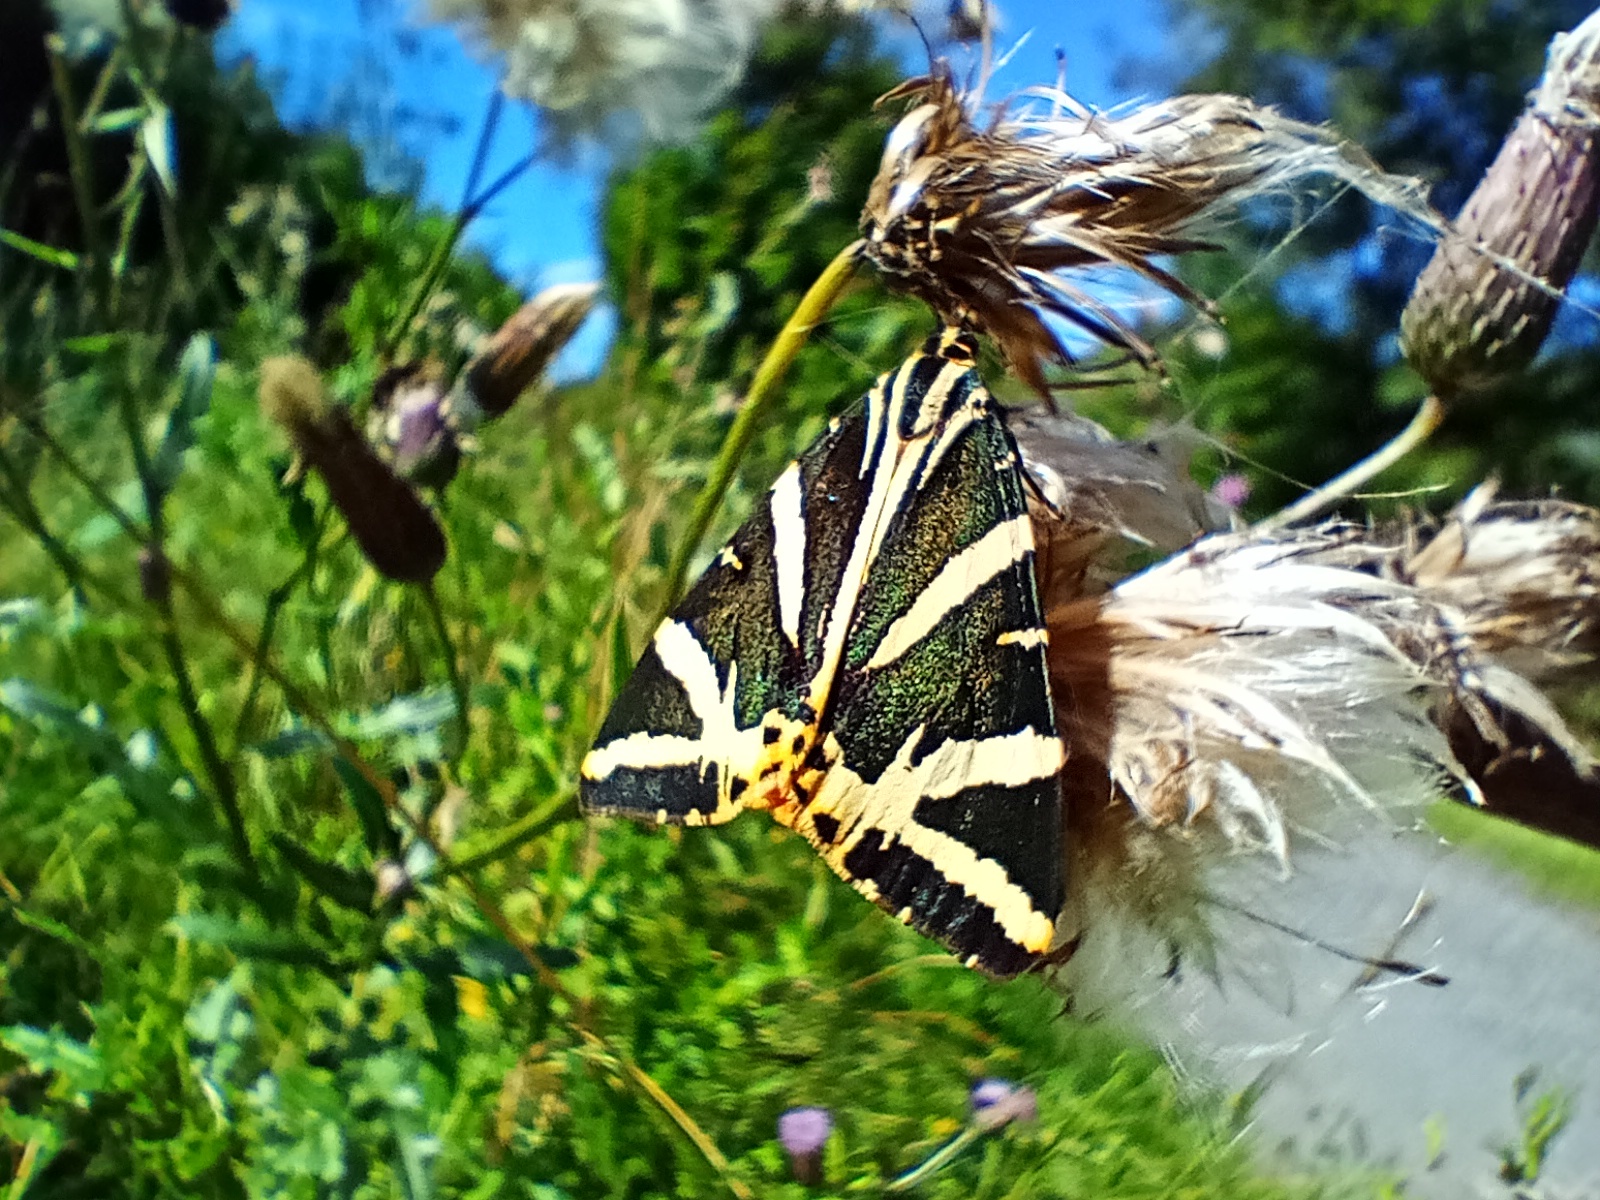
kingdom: Animalia
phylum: Arthropoda
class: Insecta
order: Lepidoptera
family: Erebidae
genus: Euplagia
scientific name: Euplagia quadripunctaria
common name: Jersey tiger
